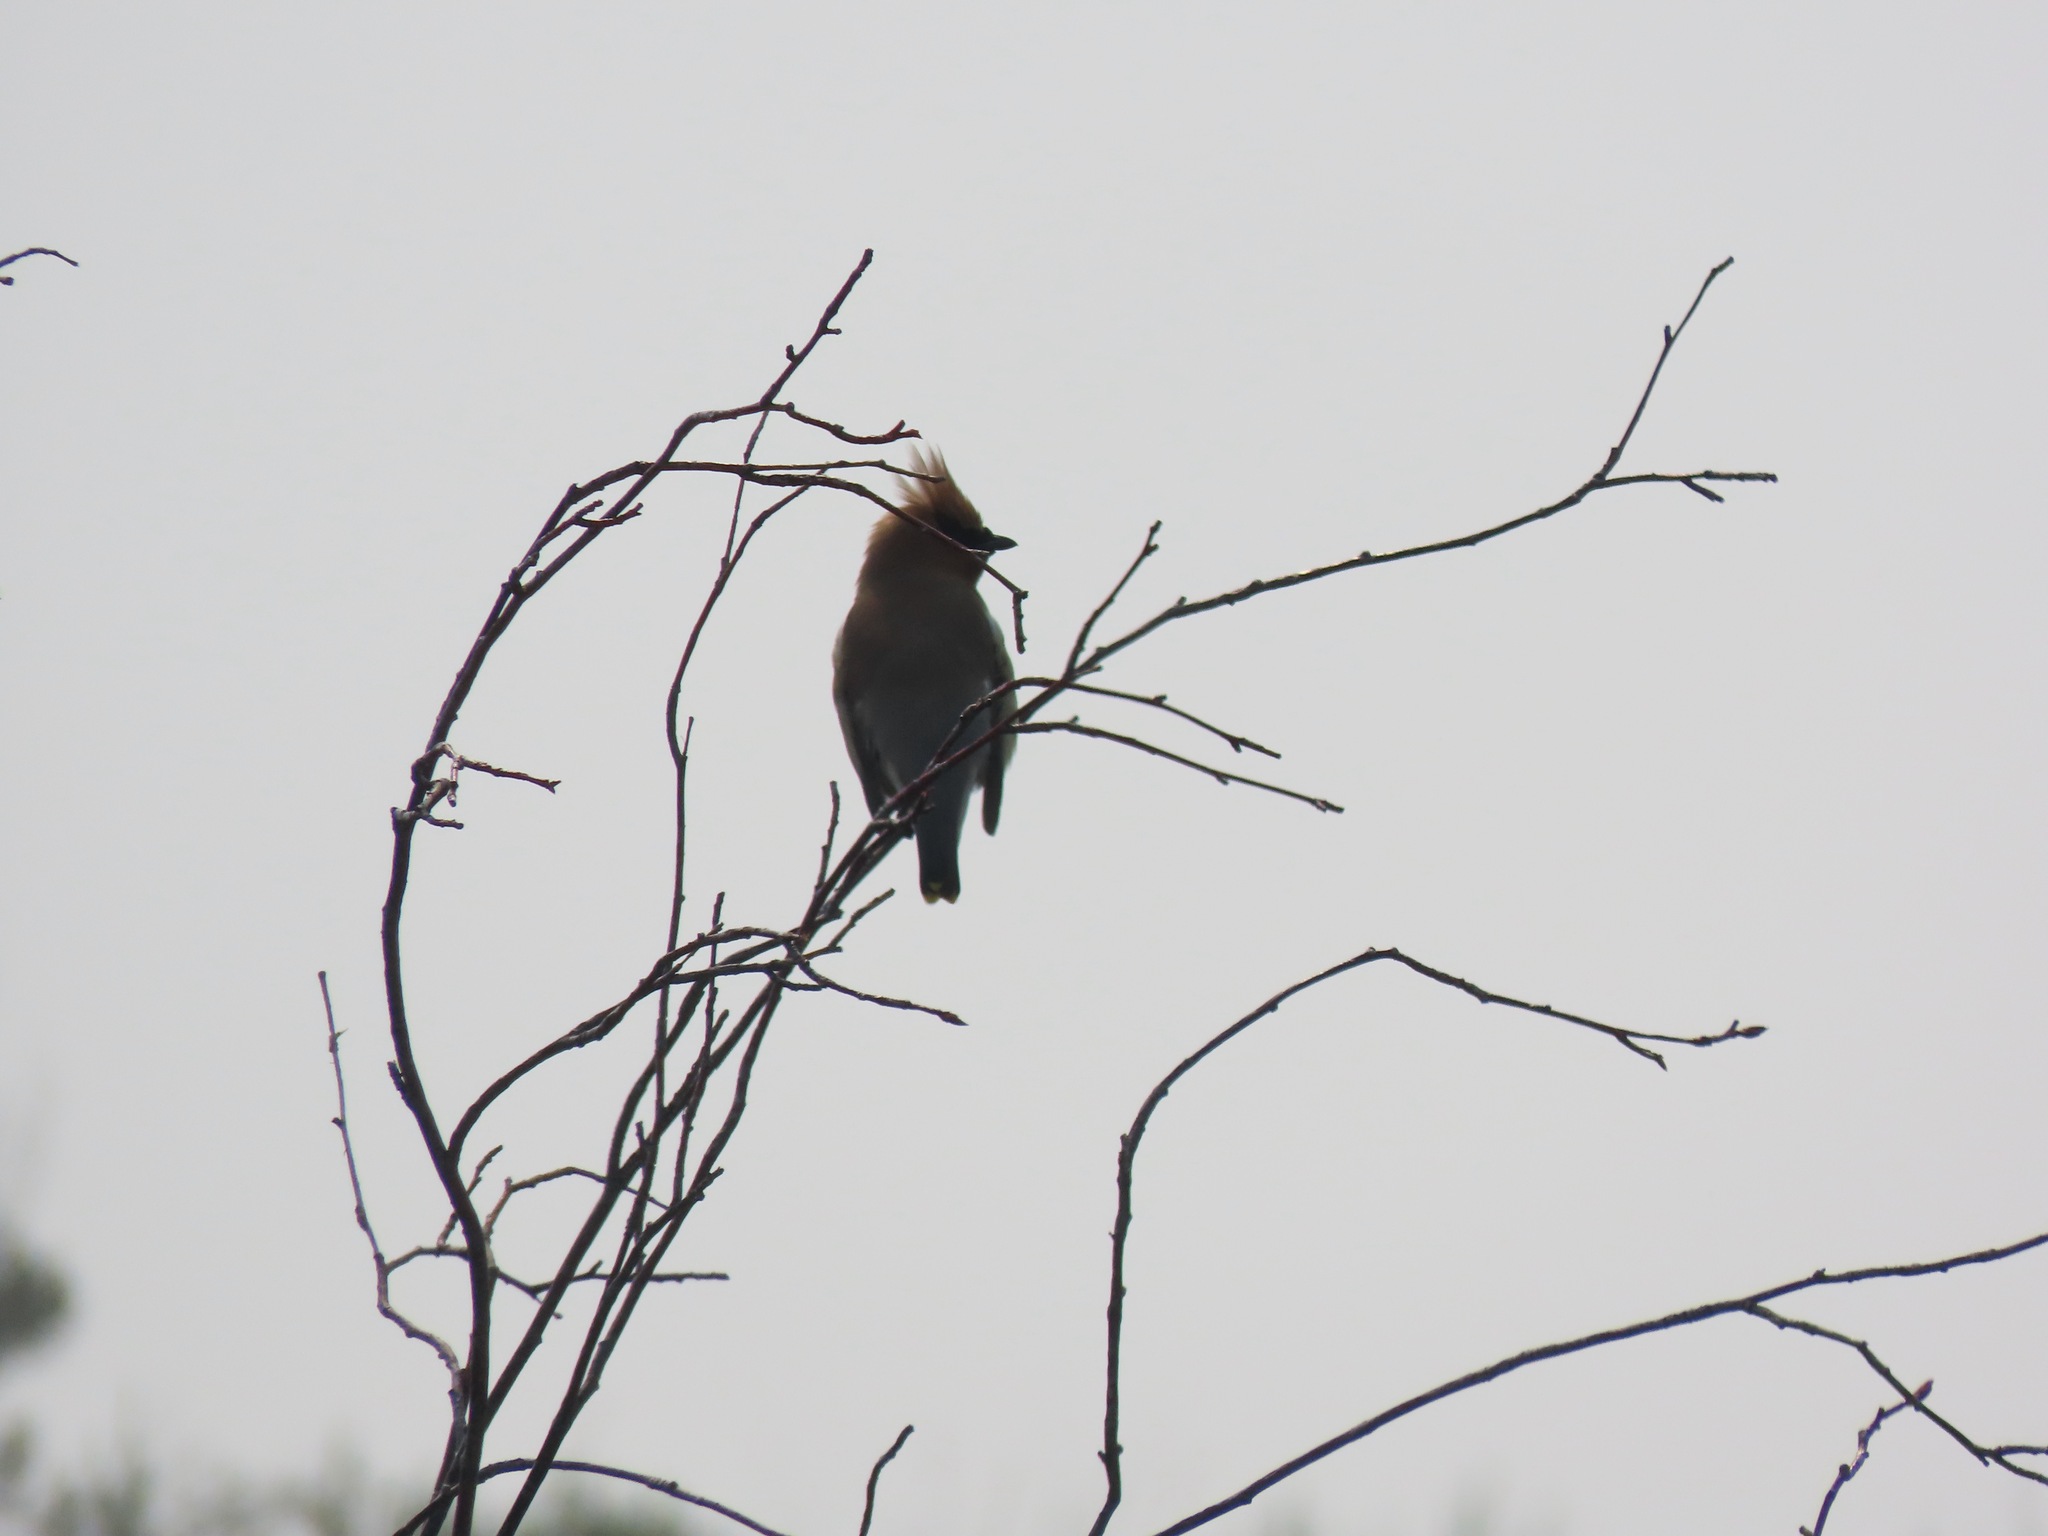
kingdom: Animalia
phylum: Chordata
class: Aves
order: Passeriformes
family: Bombycillidae
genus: Bombycilla
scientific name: Bombycilla cedrorum
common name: Cedar waxwing
